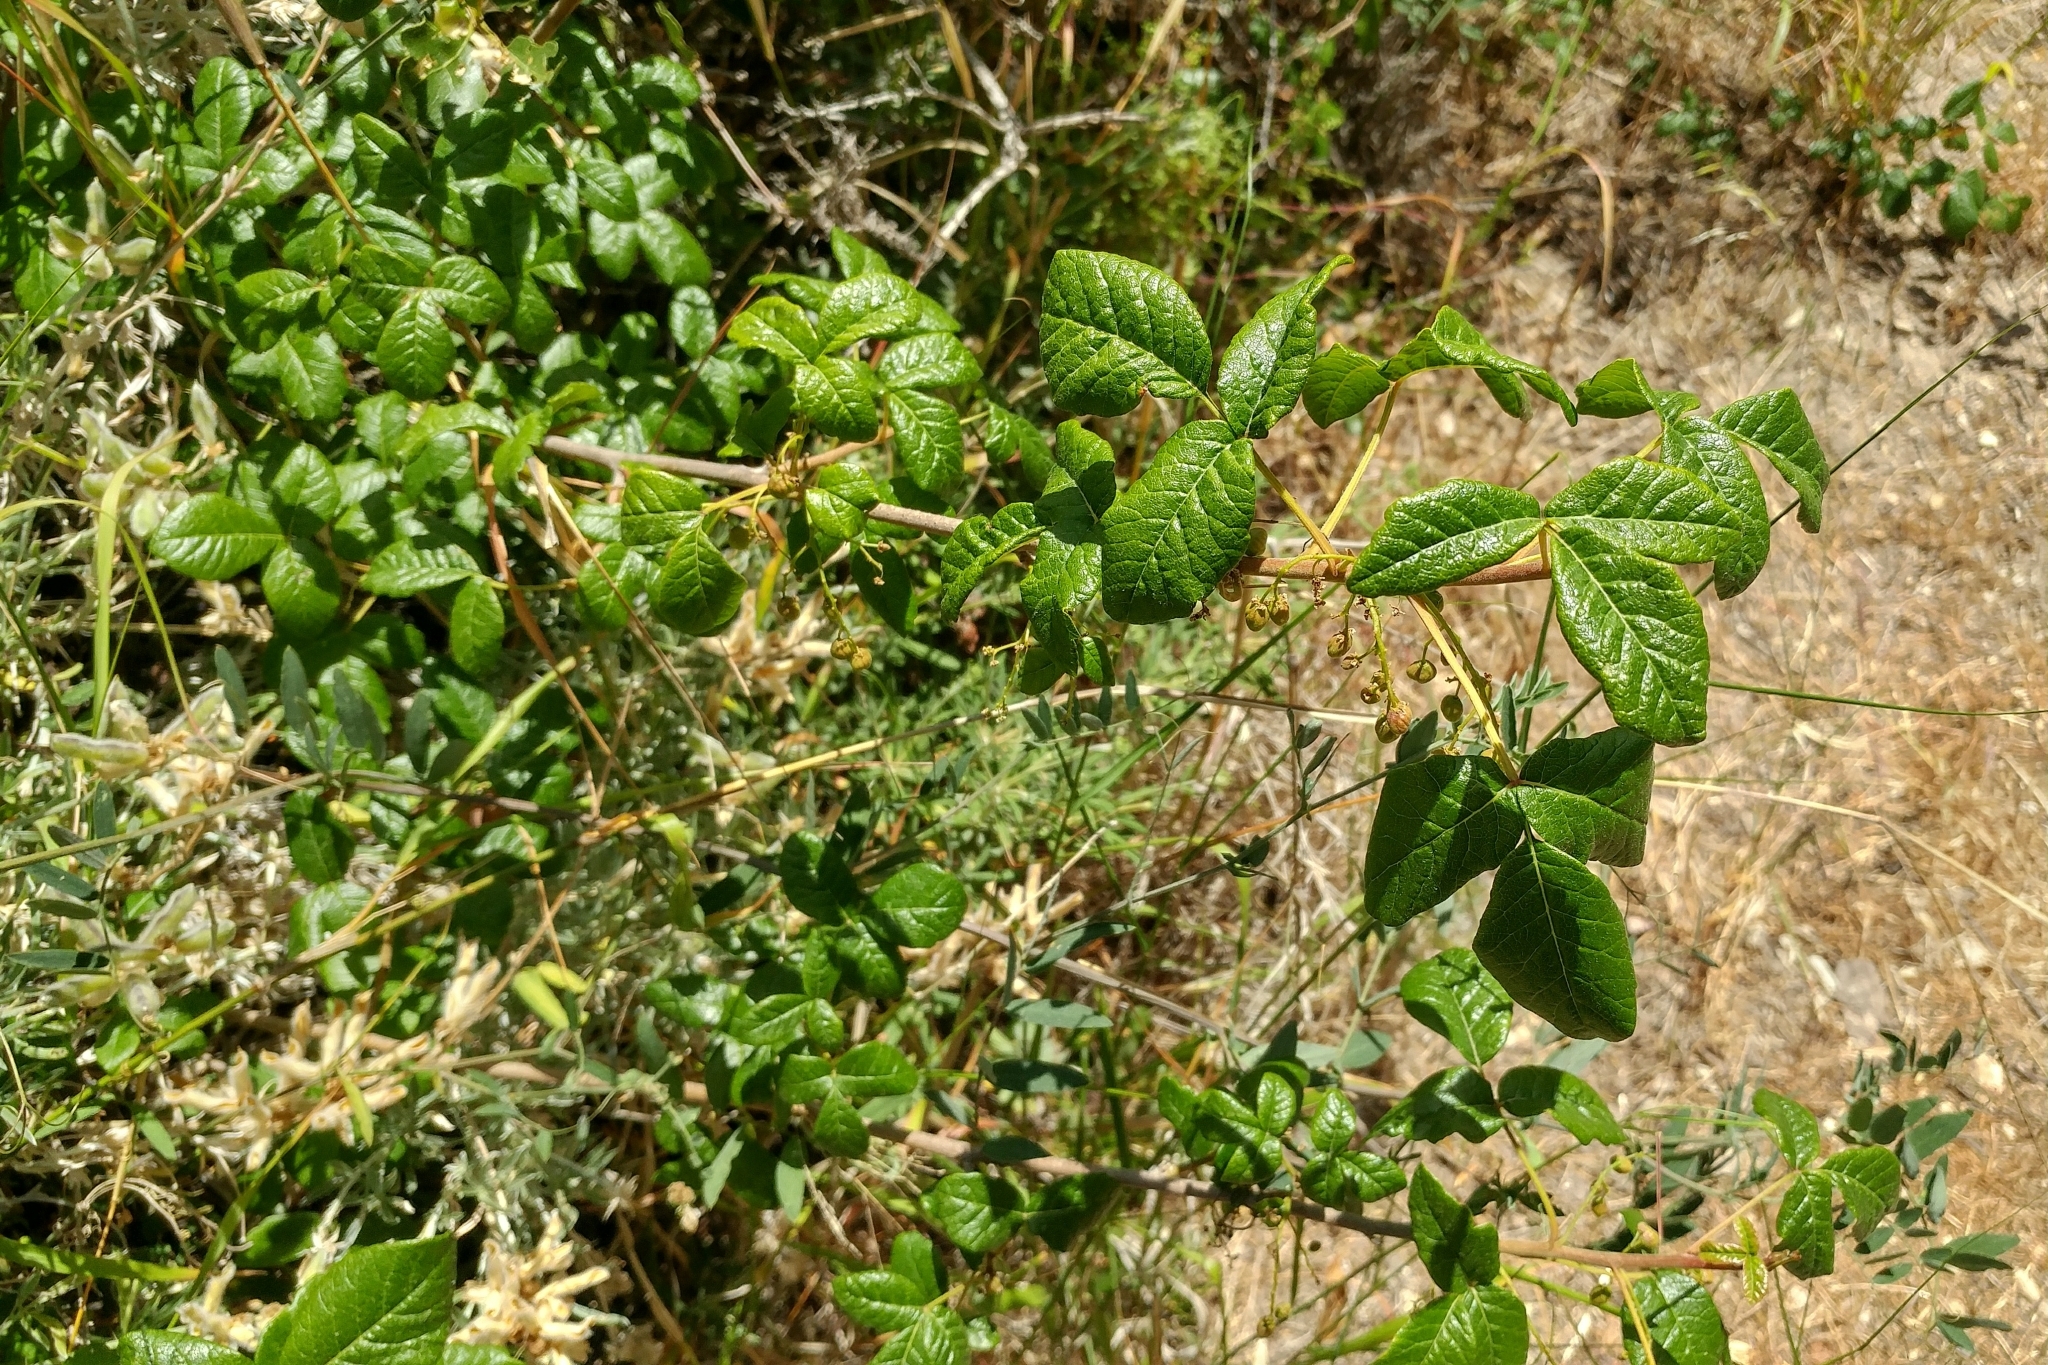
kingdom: Plantae
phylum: Tracheophyta
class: Magnoliopsida
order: Sapindales
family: Anacardiaceae
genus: Toxicodendron
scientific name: Toxicodendron diversilobum
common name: Pacific poison-oak
